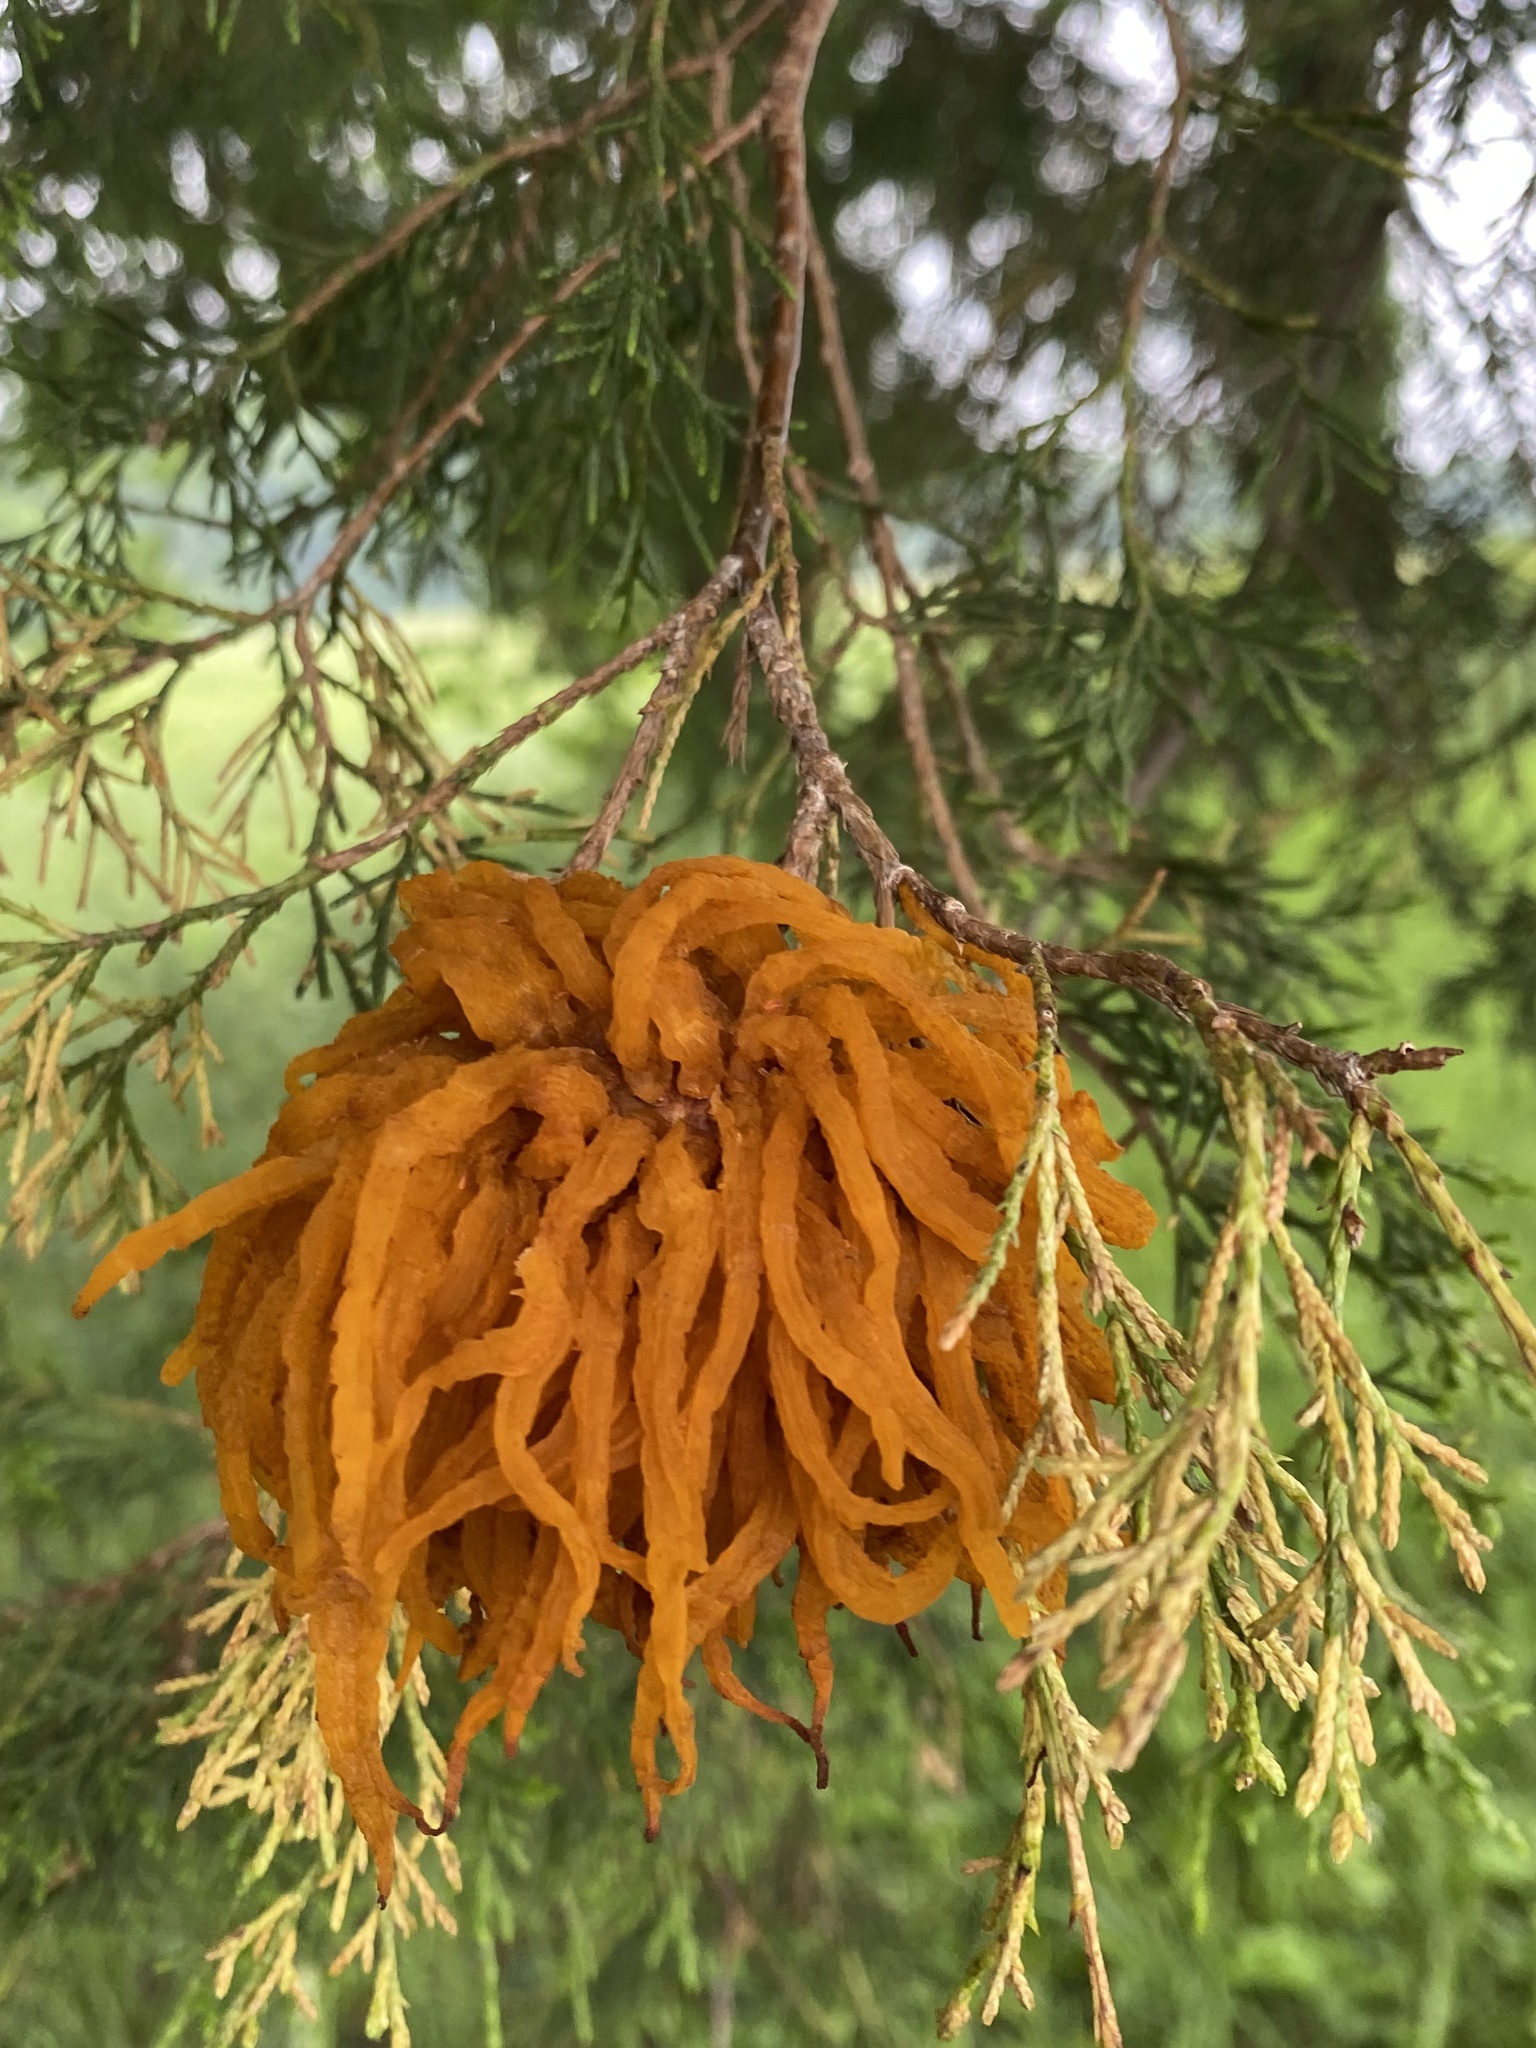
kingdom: Fungi
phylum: Basidiomycota
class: Pucciniomycetes
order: Pucciniales
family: Gymnosporangiaceae
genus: Gymnosporangium
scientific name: Gymnosporangium juniperi-virginianae
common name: Juniper-apple rust
